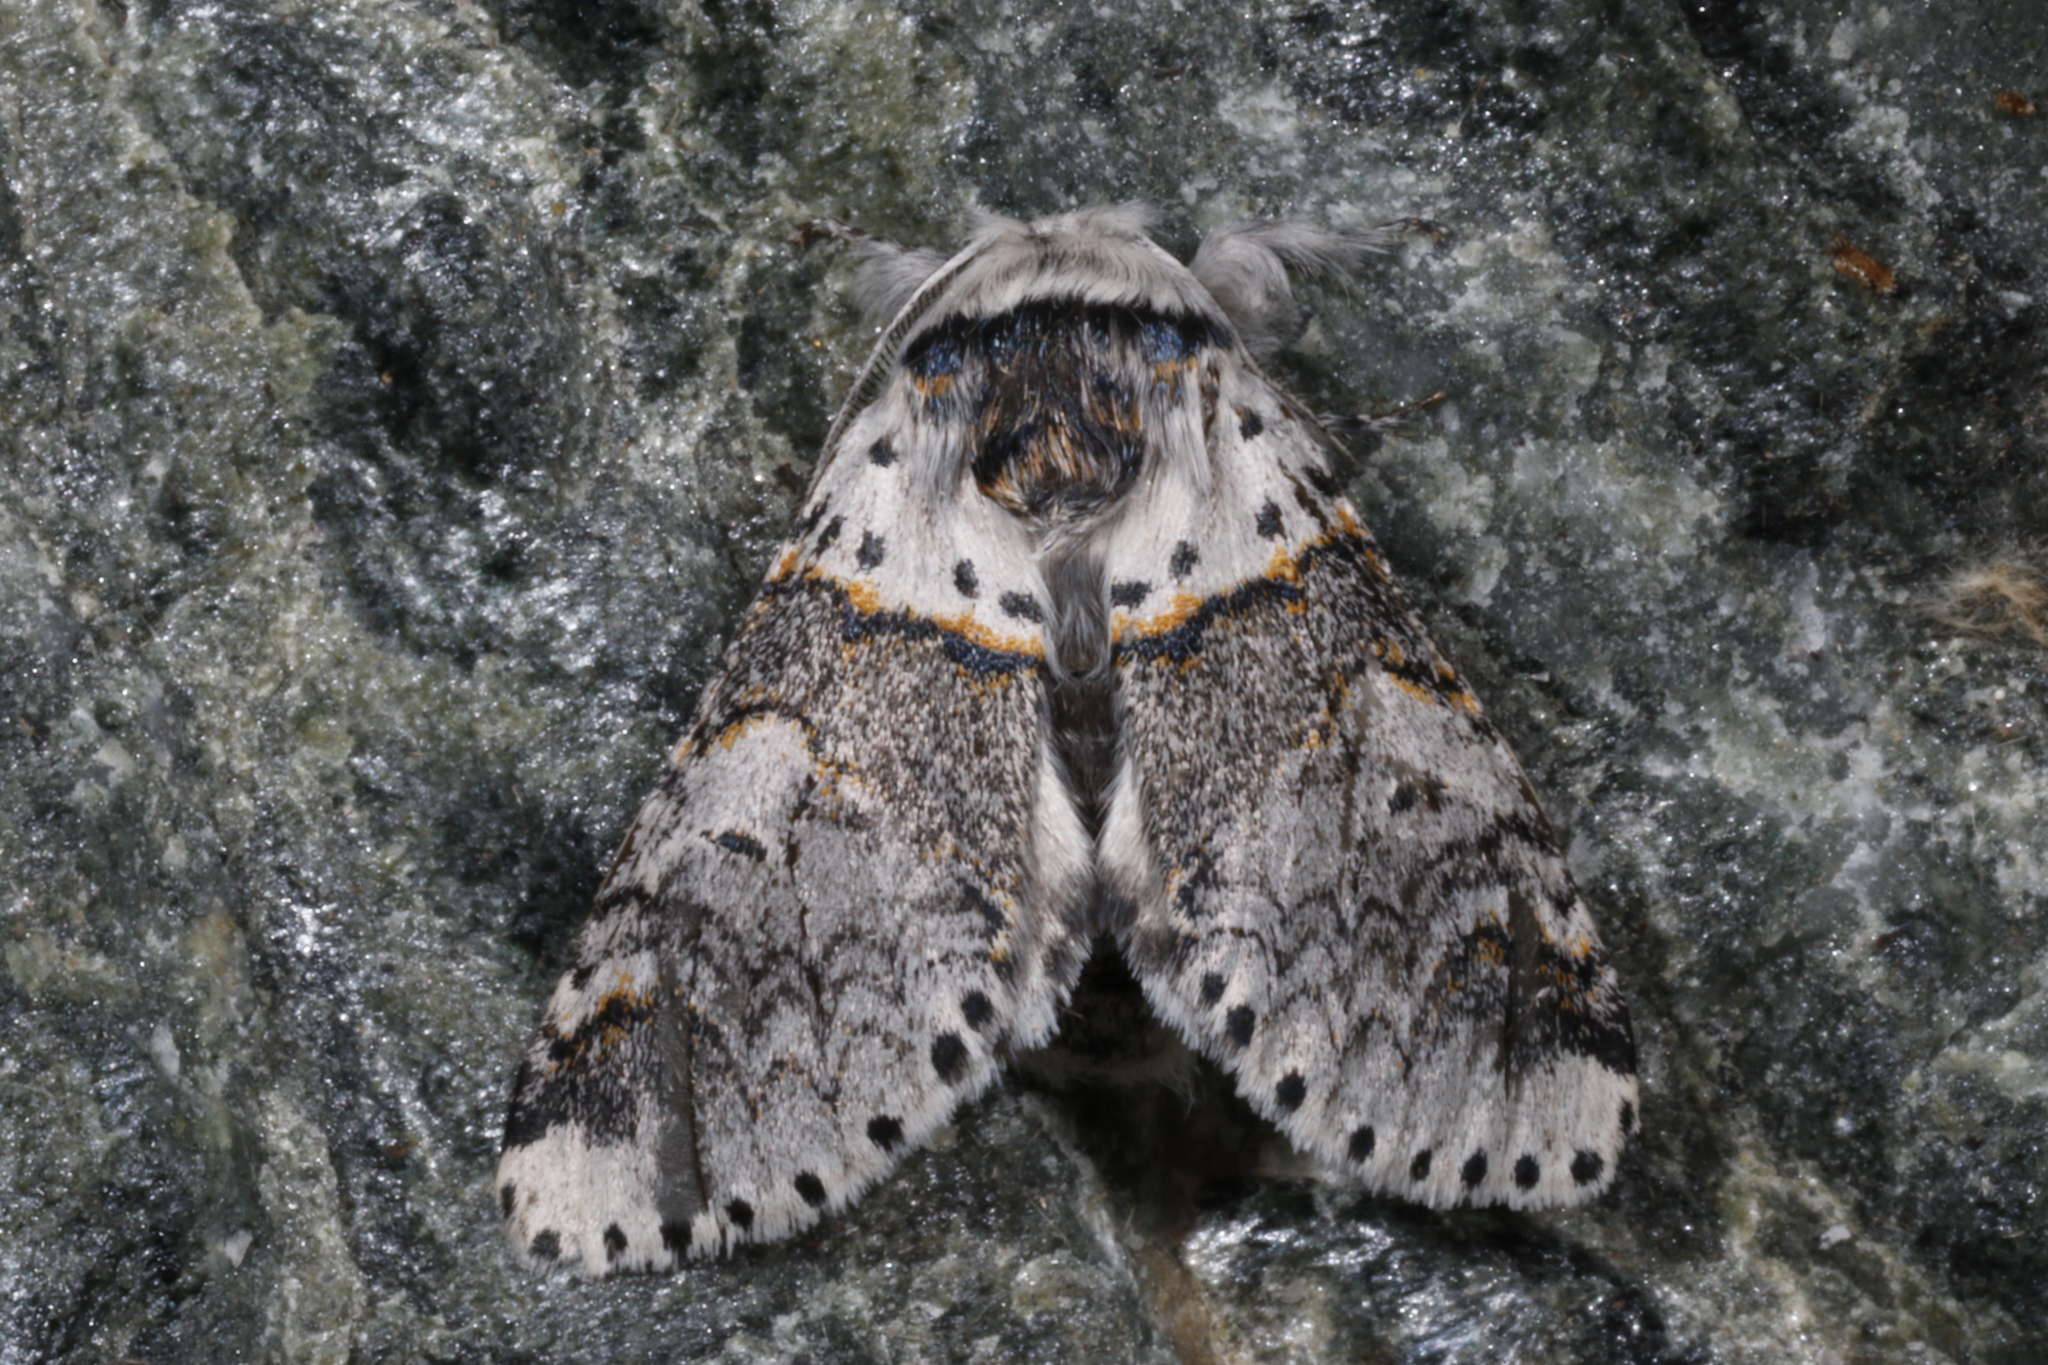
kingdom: Animalia
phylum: Arthropoda
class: Insecta
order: Lepidoptera
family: Notodontidae
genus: Furcula
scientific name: Furcula furcula
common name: Sallow kitten
